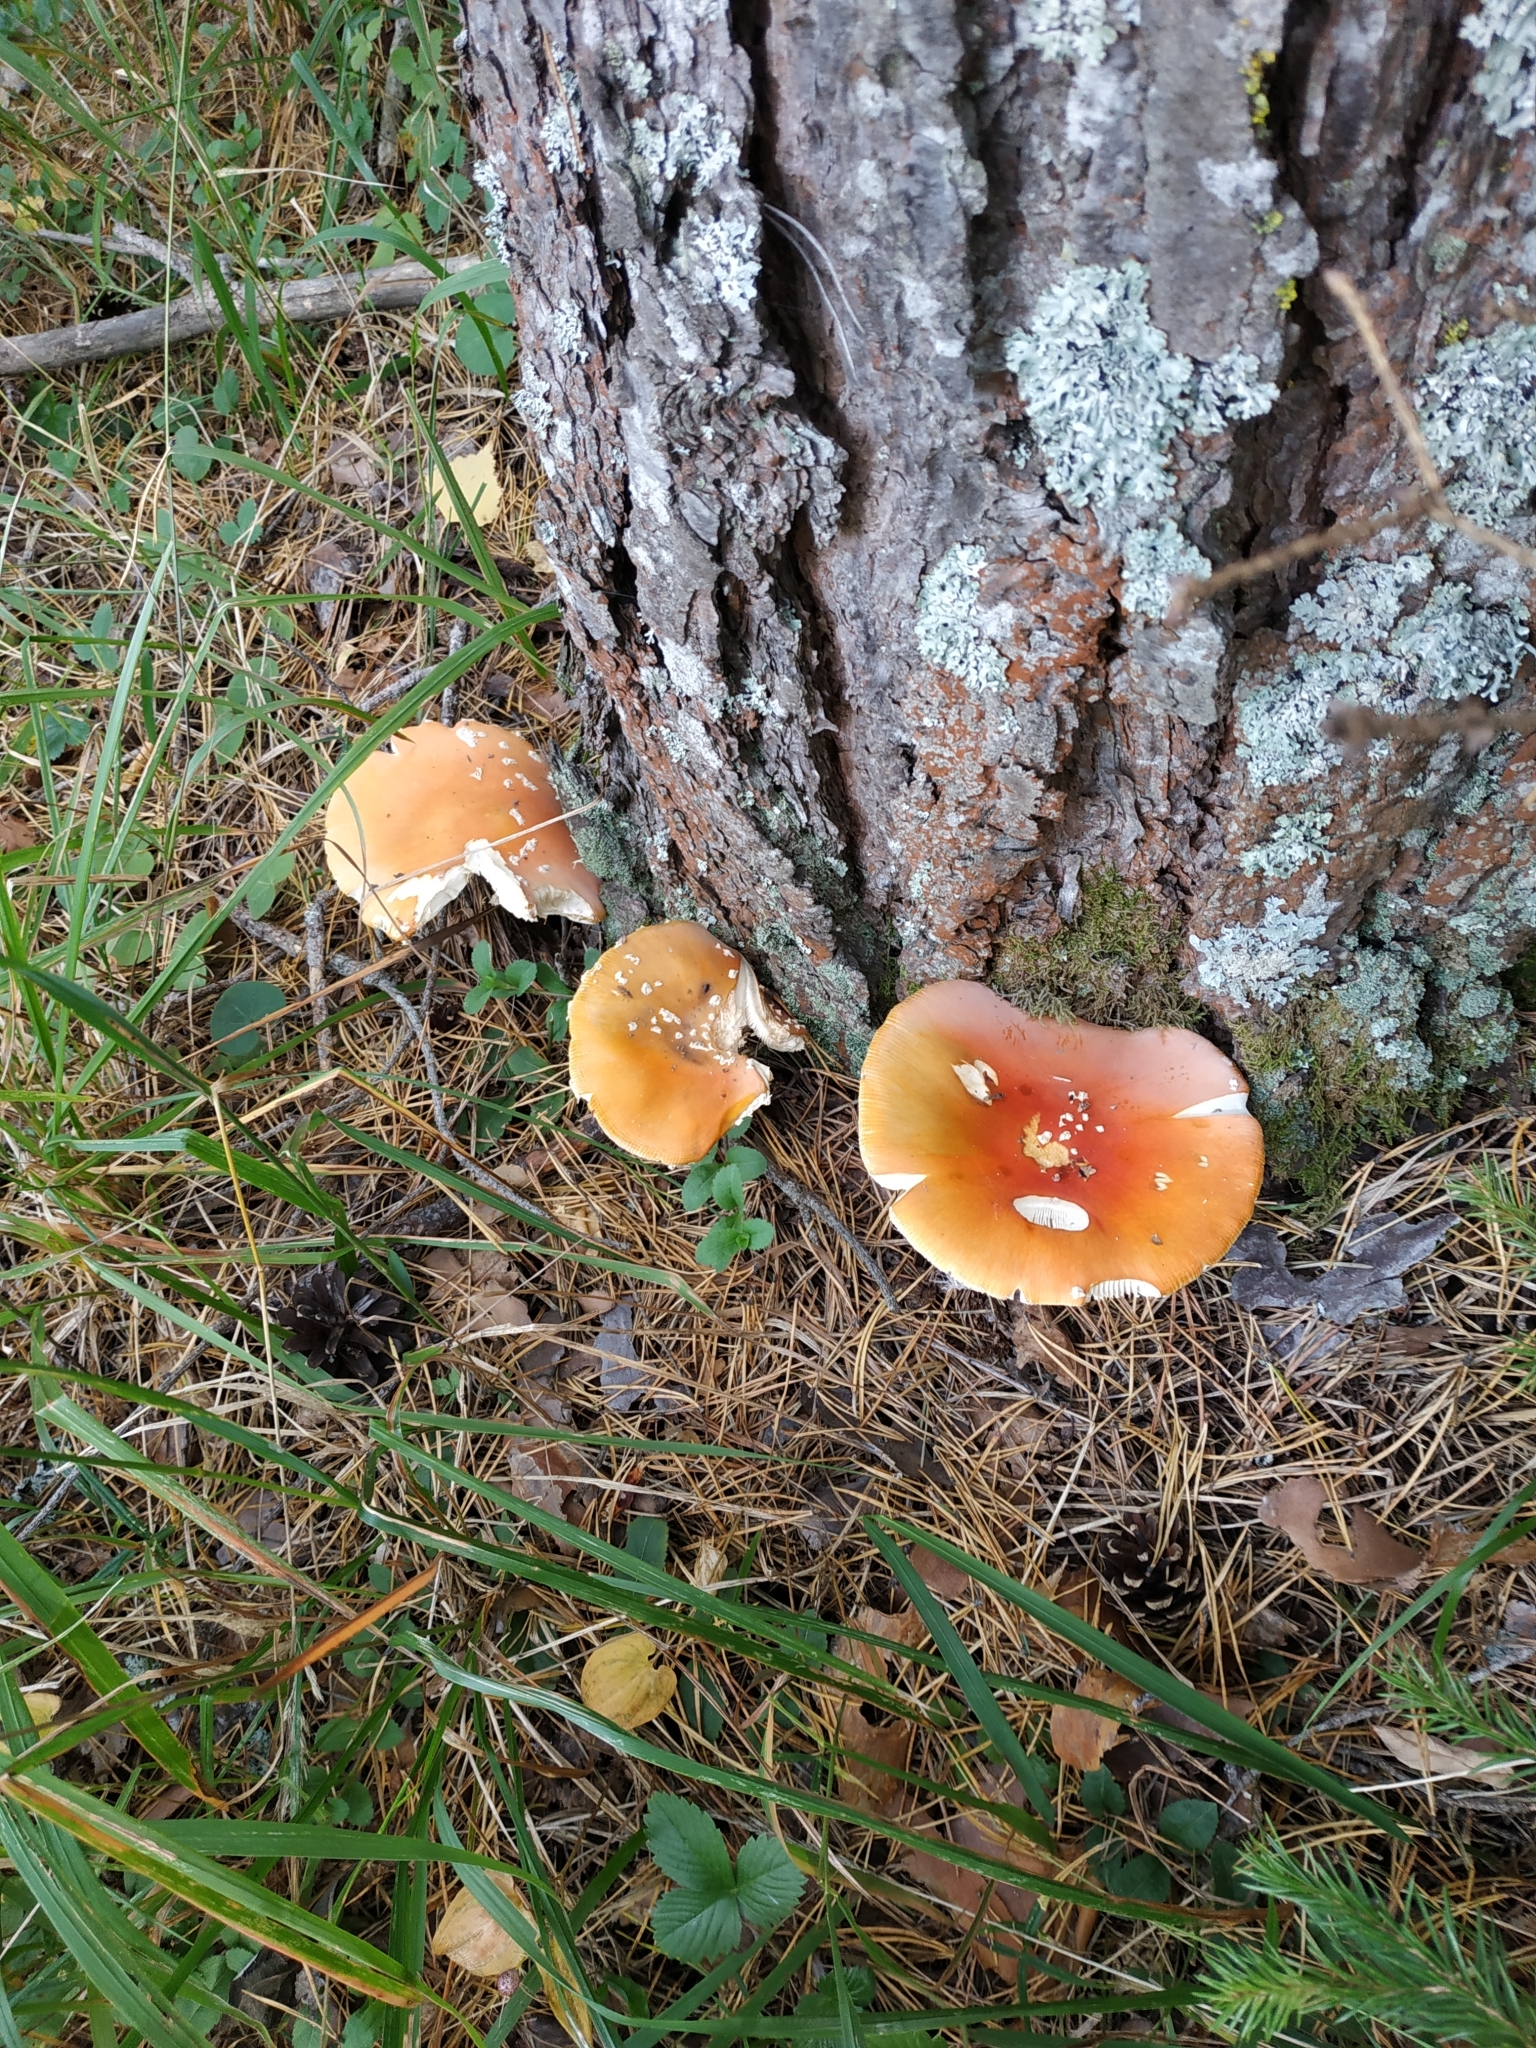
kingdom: Fungi
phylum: Basidiomycota
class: Agaricomycetes
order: Agaricales
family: Amanitaceae
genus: Amanita
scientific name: Amanita muscaria
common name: Fly agaric
